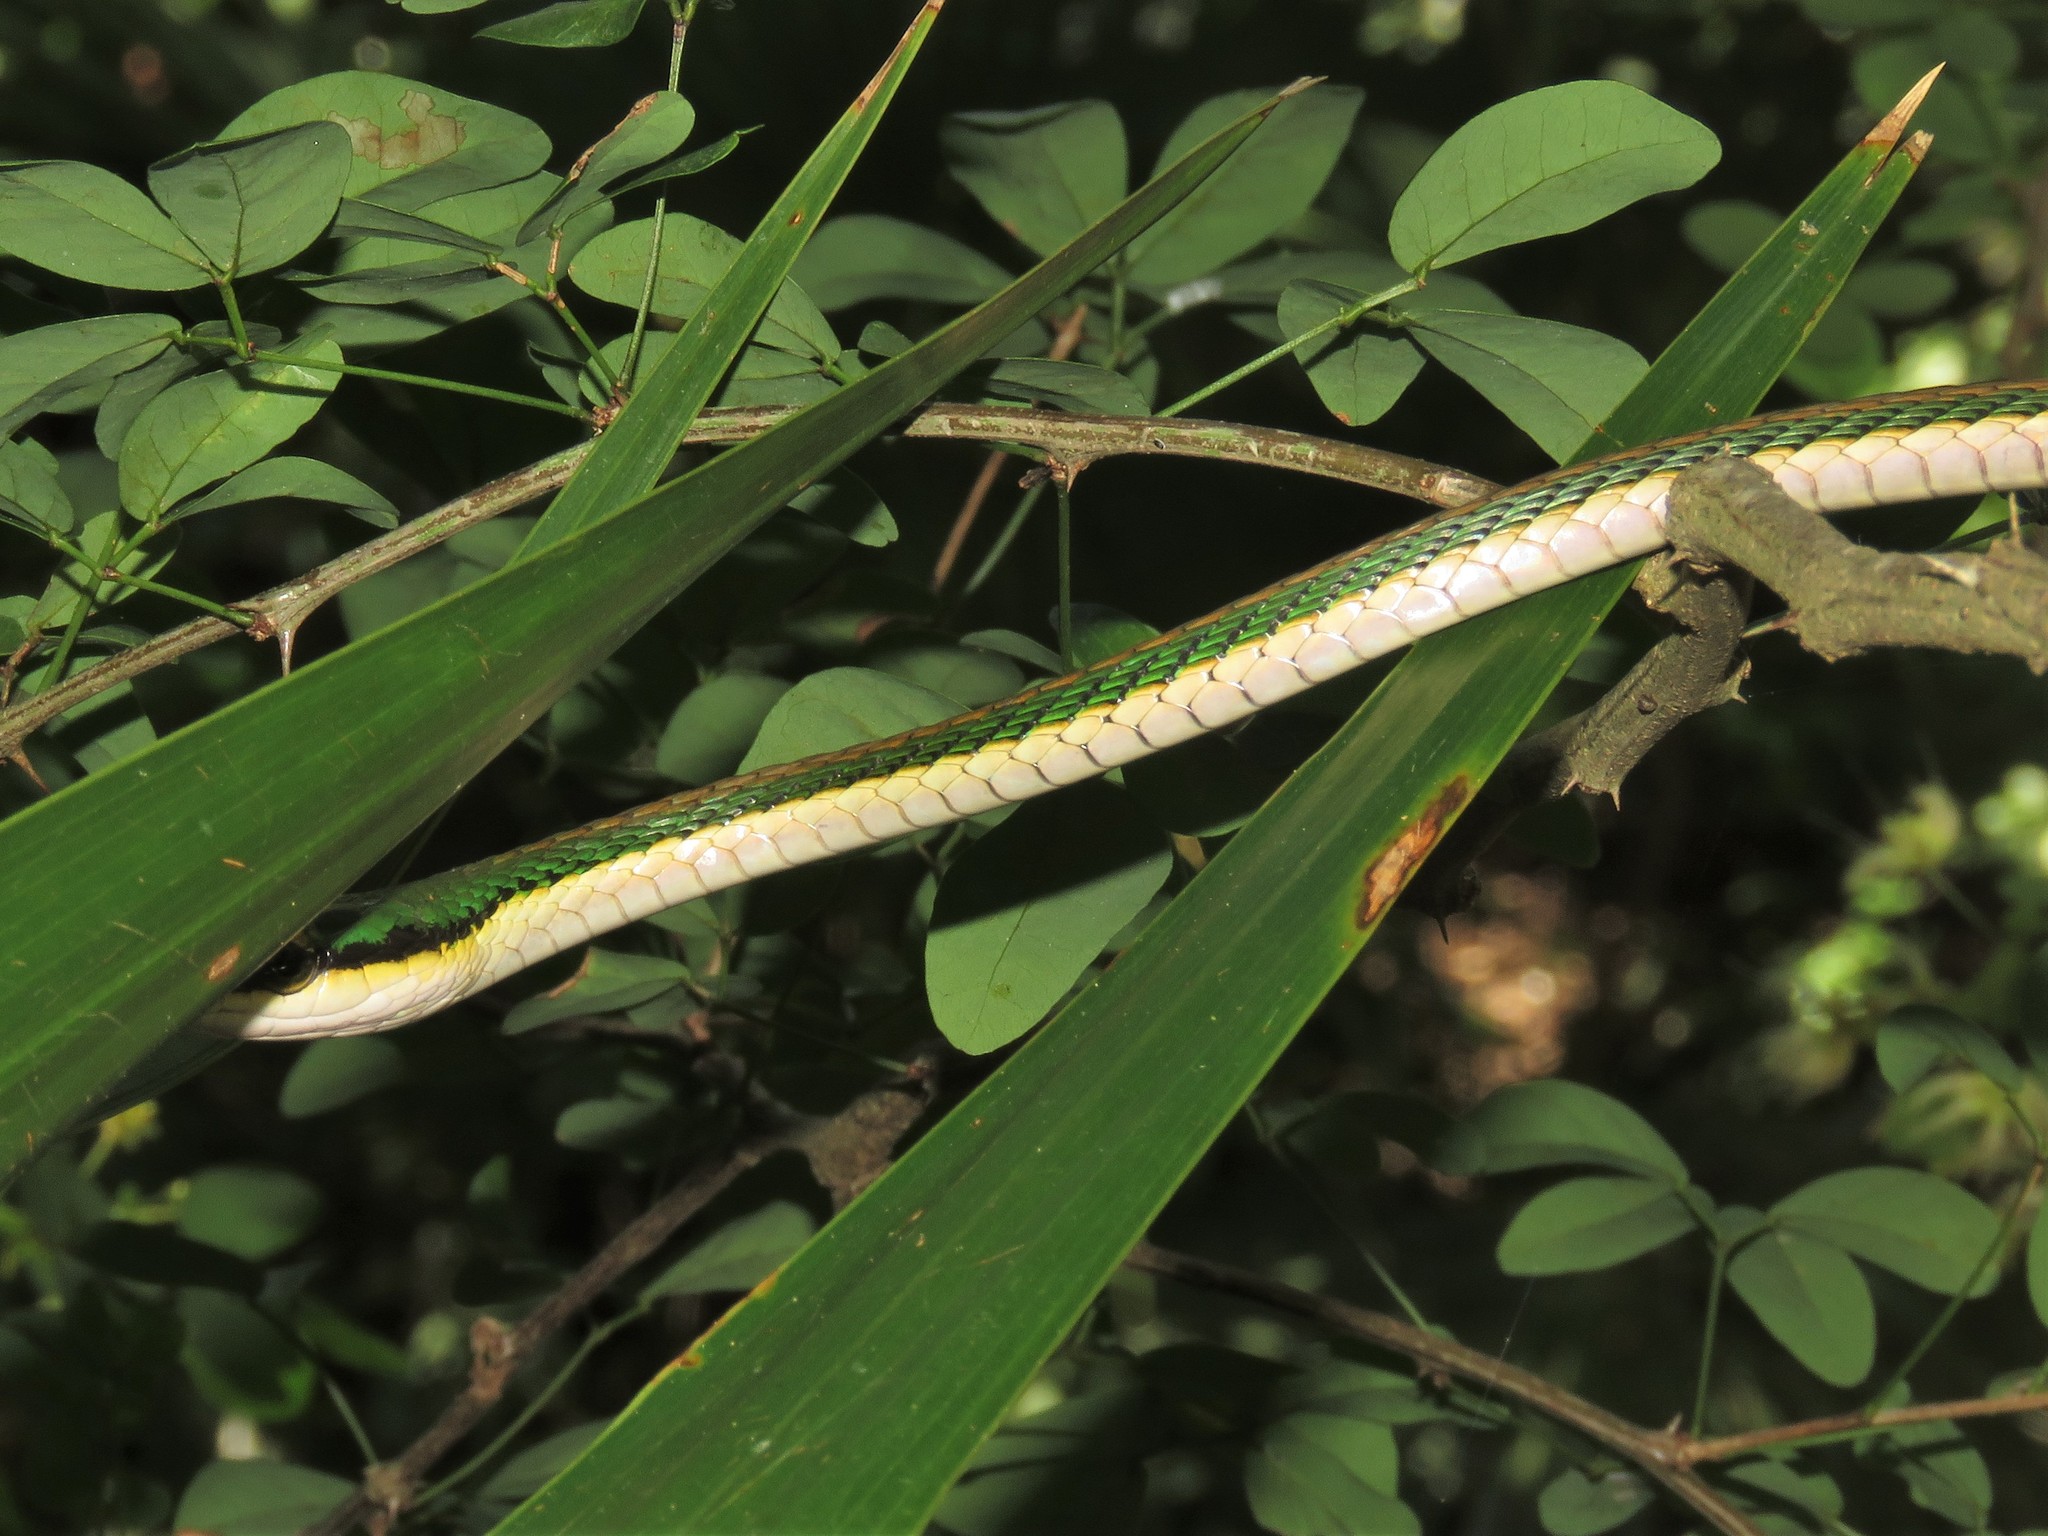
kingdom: Animalia
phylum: Chordata
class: Squamata
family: Colubridae
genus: Leptophis
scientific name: Leptophis mexicanus
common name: Mexican parrot snake
